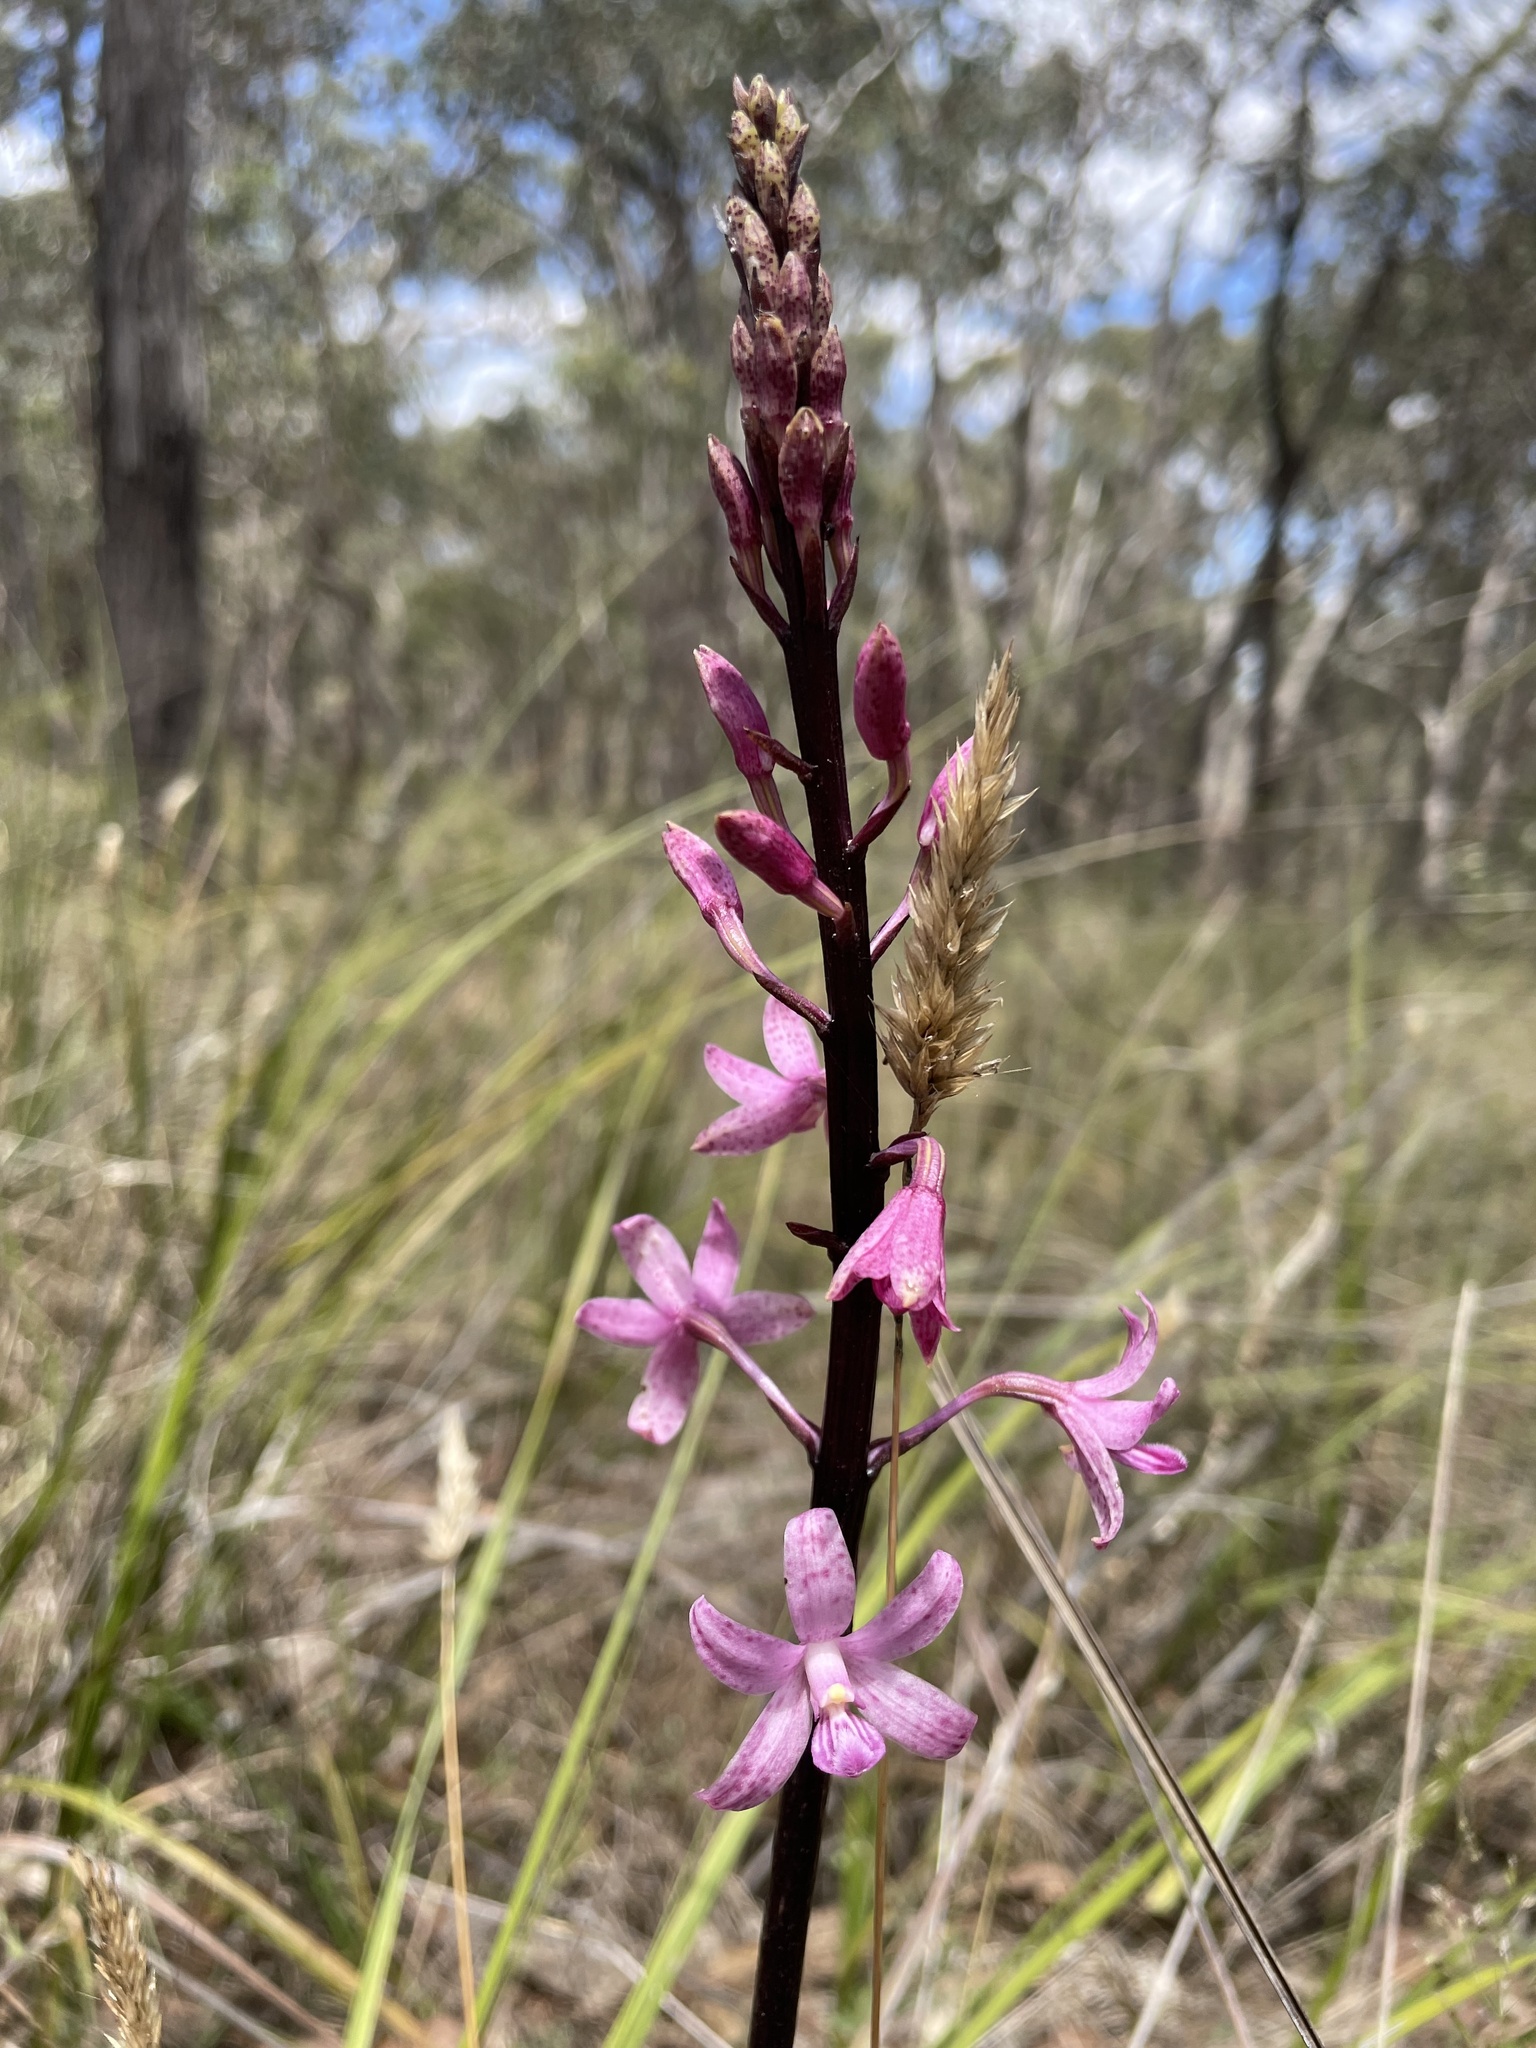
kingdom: Plantae
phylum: Tracheophyta
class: Liliopsida
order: Asparagales
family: Orchidaceae
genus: Dipodium
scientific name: Dipodium roseum
